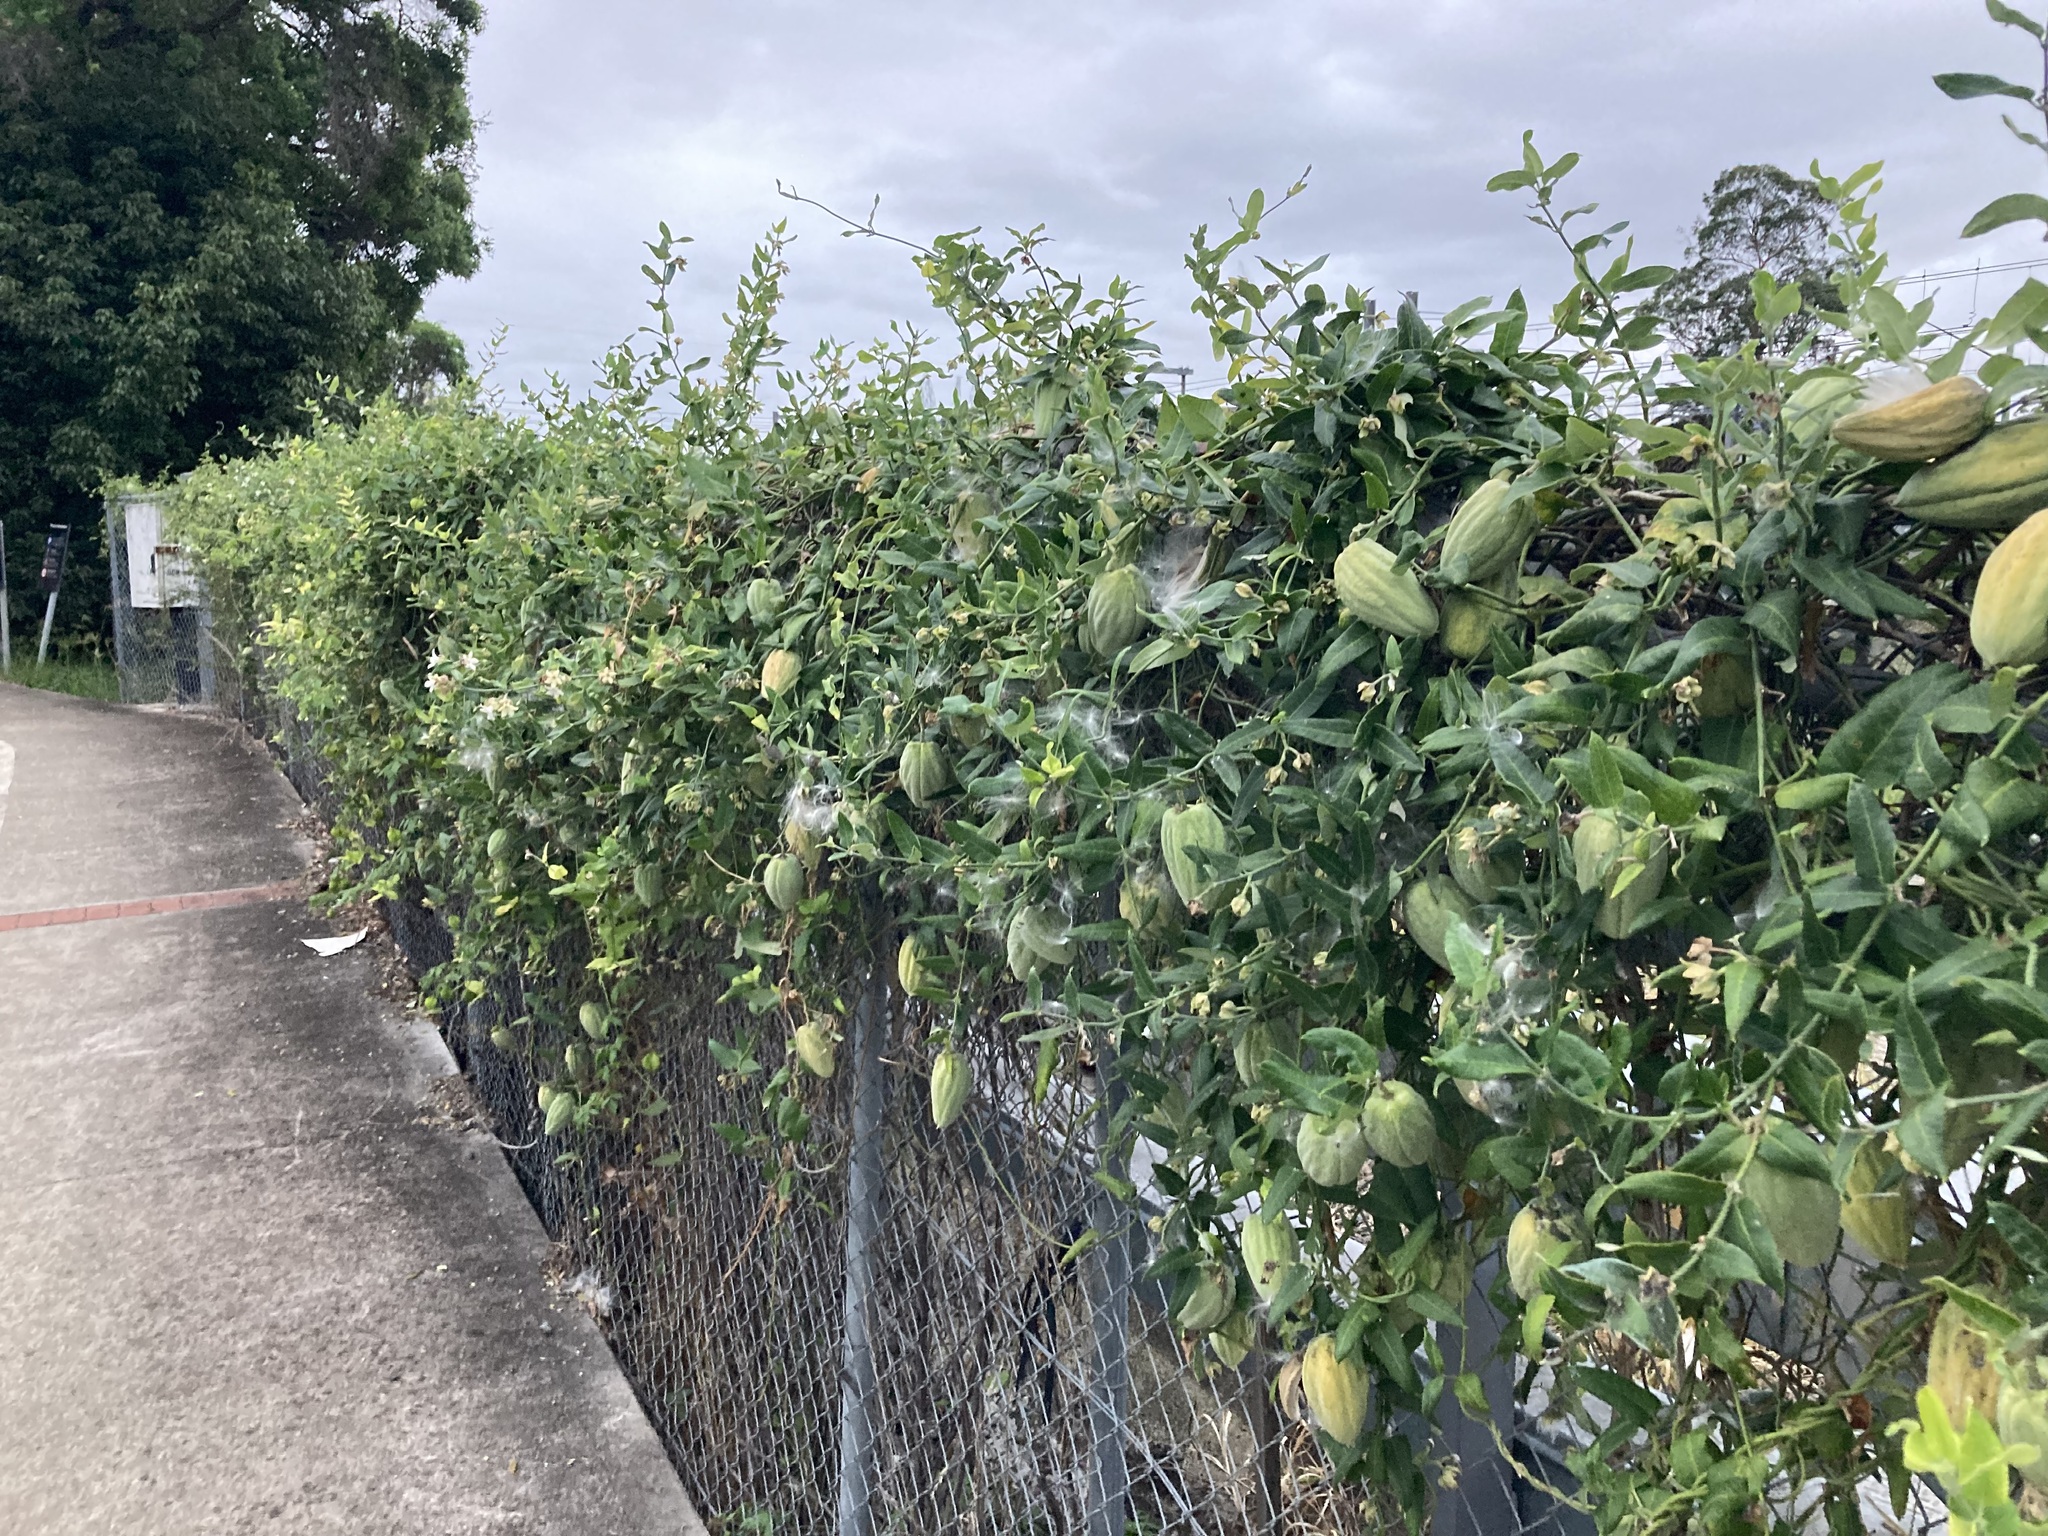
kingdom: Plantae
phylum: Tracheophyta
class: Magnoliopsida
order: Gentianales
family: Apocynaceae
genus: Araujia
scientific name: Araujia sericifera
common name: White bladderflower
